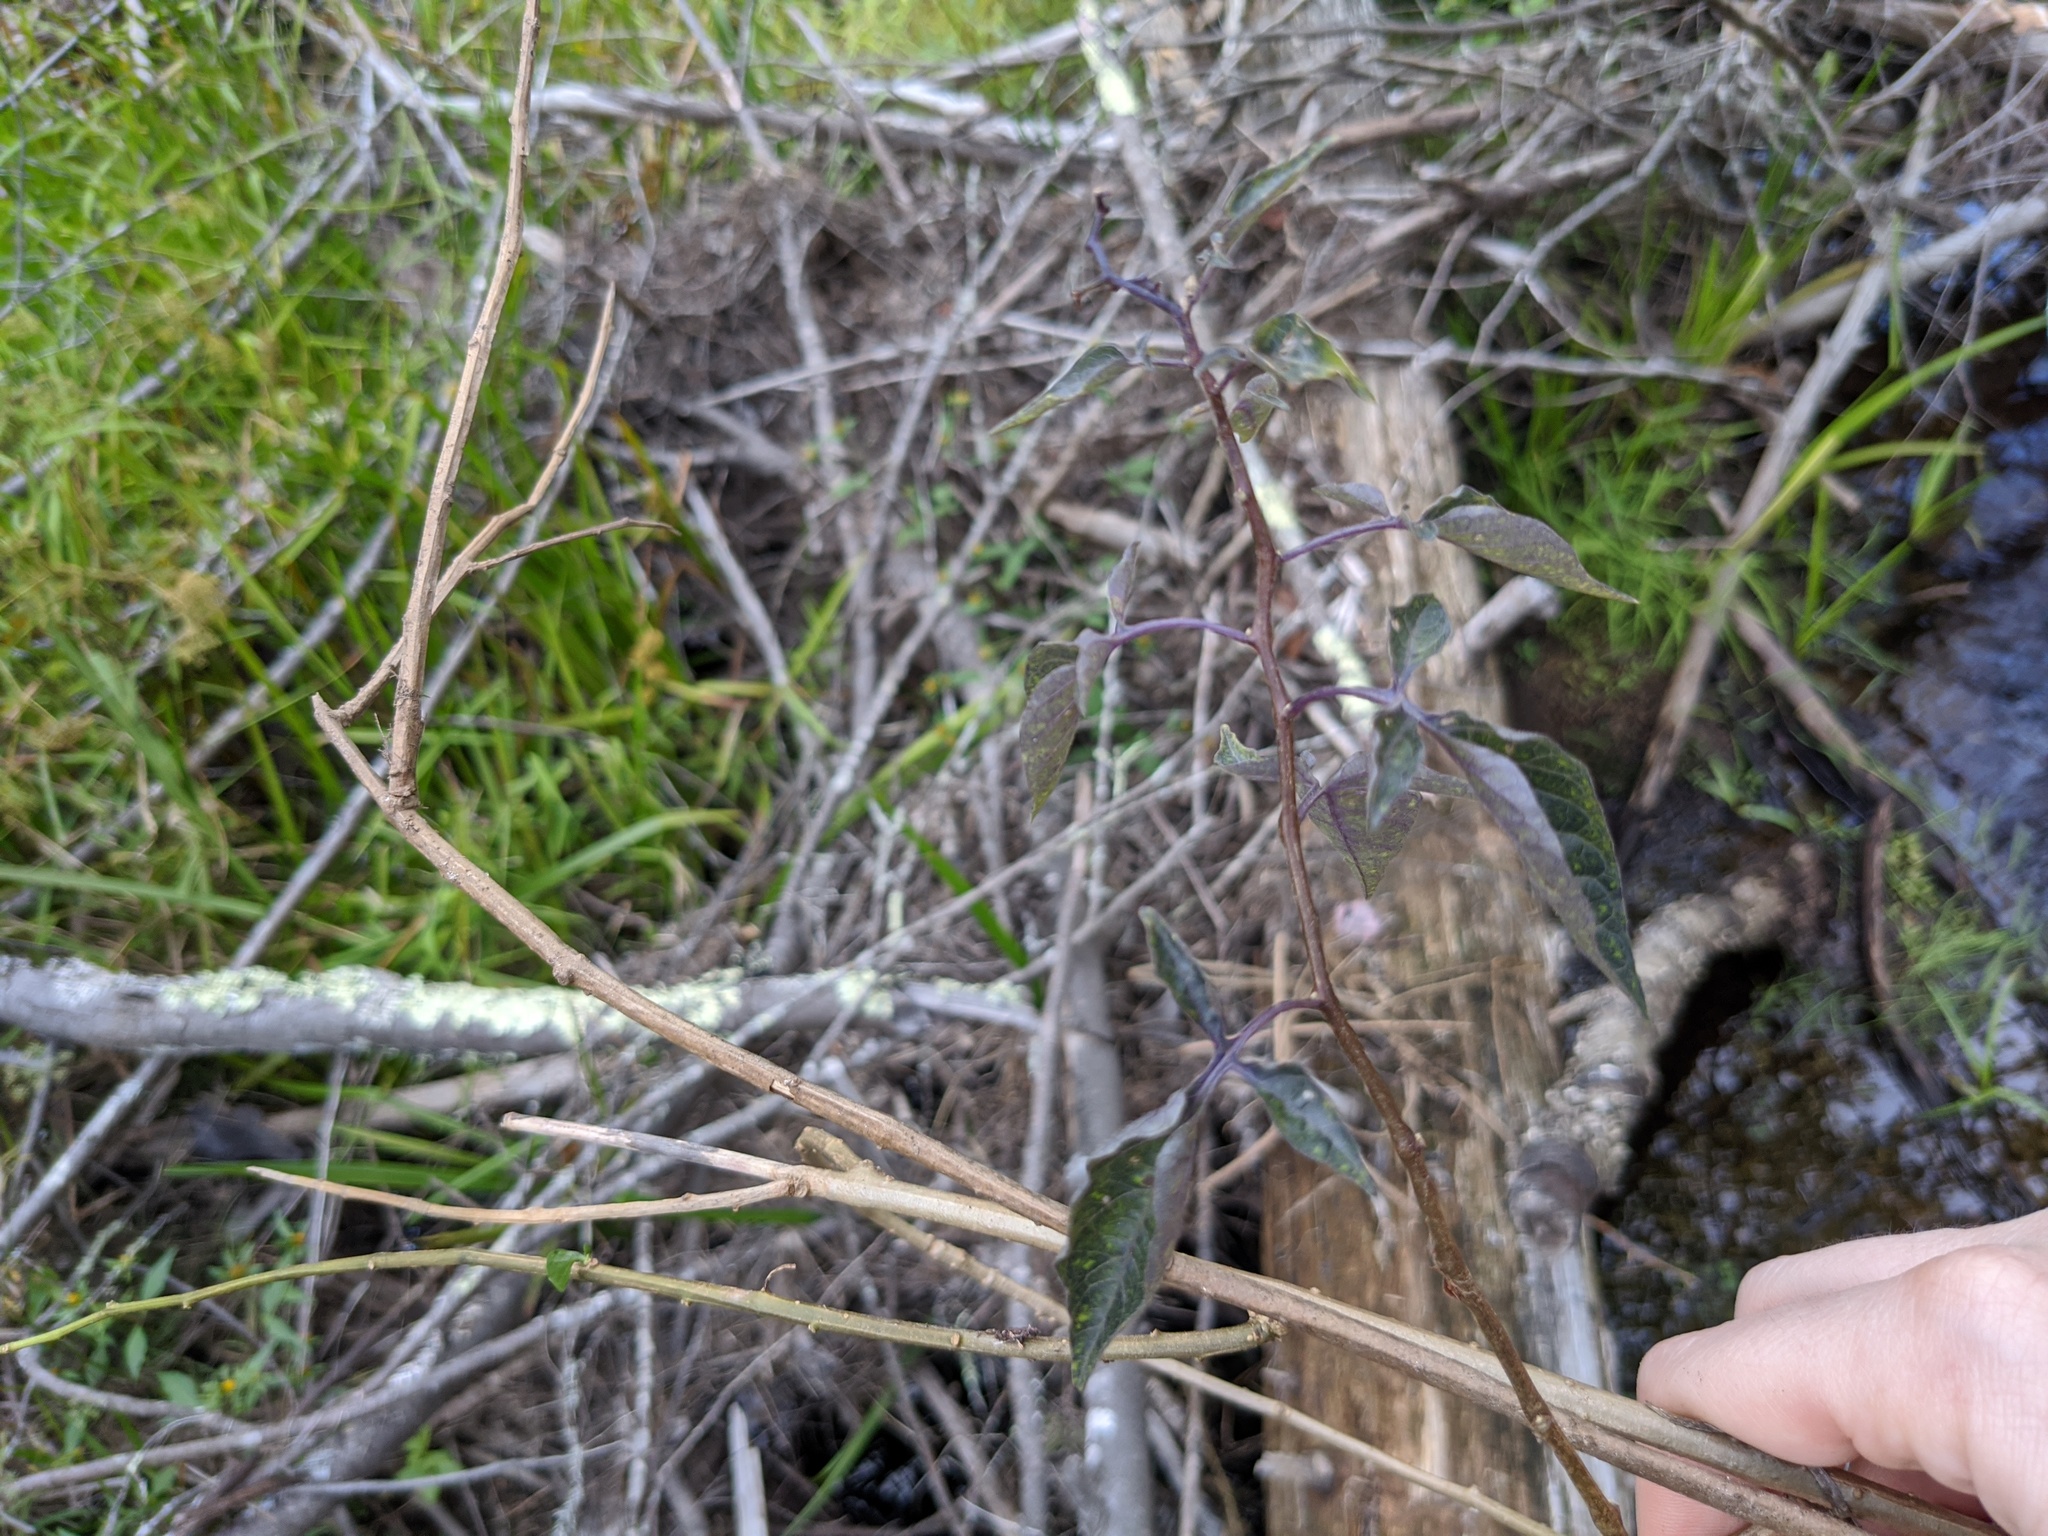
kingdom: Plantae
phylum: Tracheophyta
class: Magnoliopsida
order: Solanales
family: Solanaceae
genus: Solanum
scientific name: Solanum dulcamara
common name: Climbing nightshade
